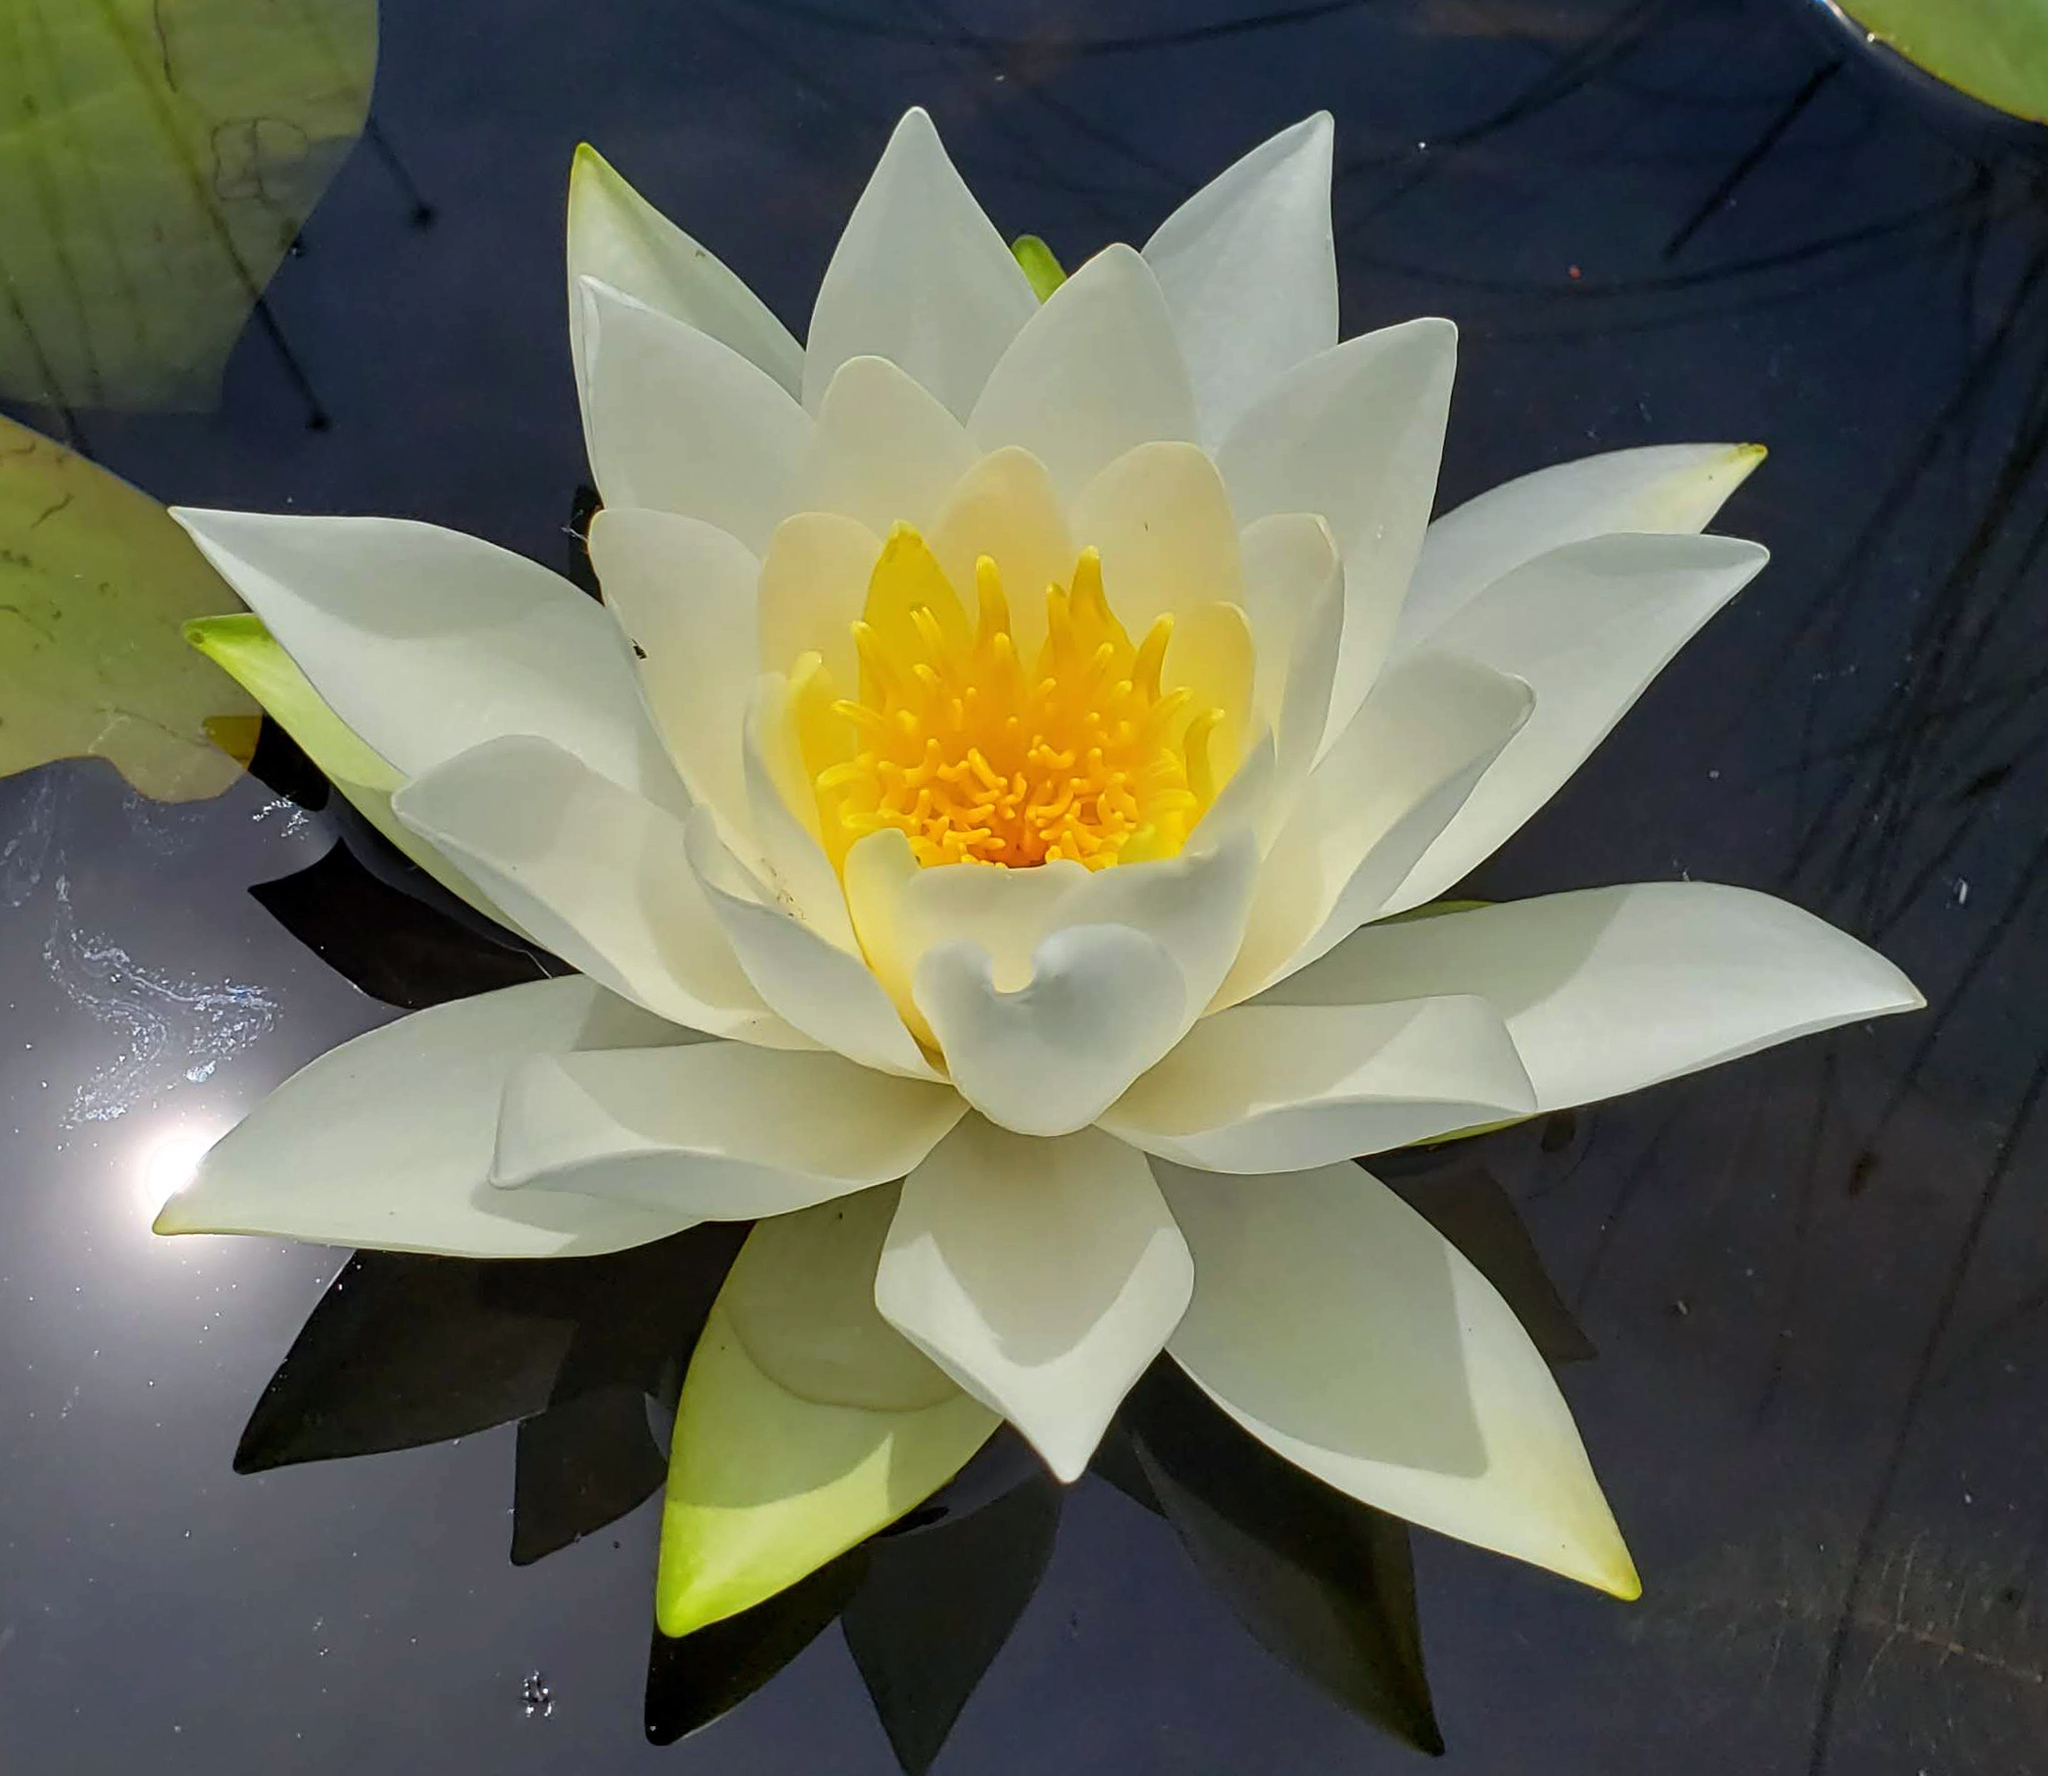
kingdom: Plantae
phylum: Tracheophyta
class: Magnoliopsida
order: Nymphaeales
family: Nymphaeaceae
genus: Nymphaea
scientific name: Nymphaea odorata
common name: Fragrant water-lily
